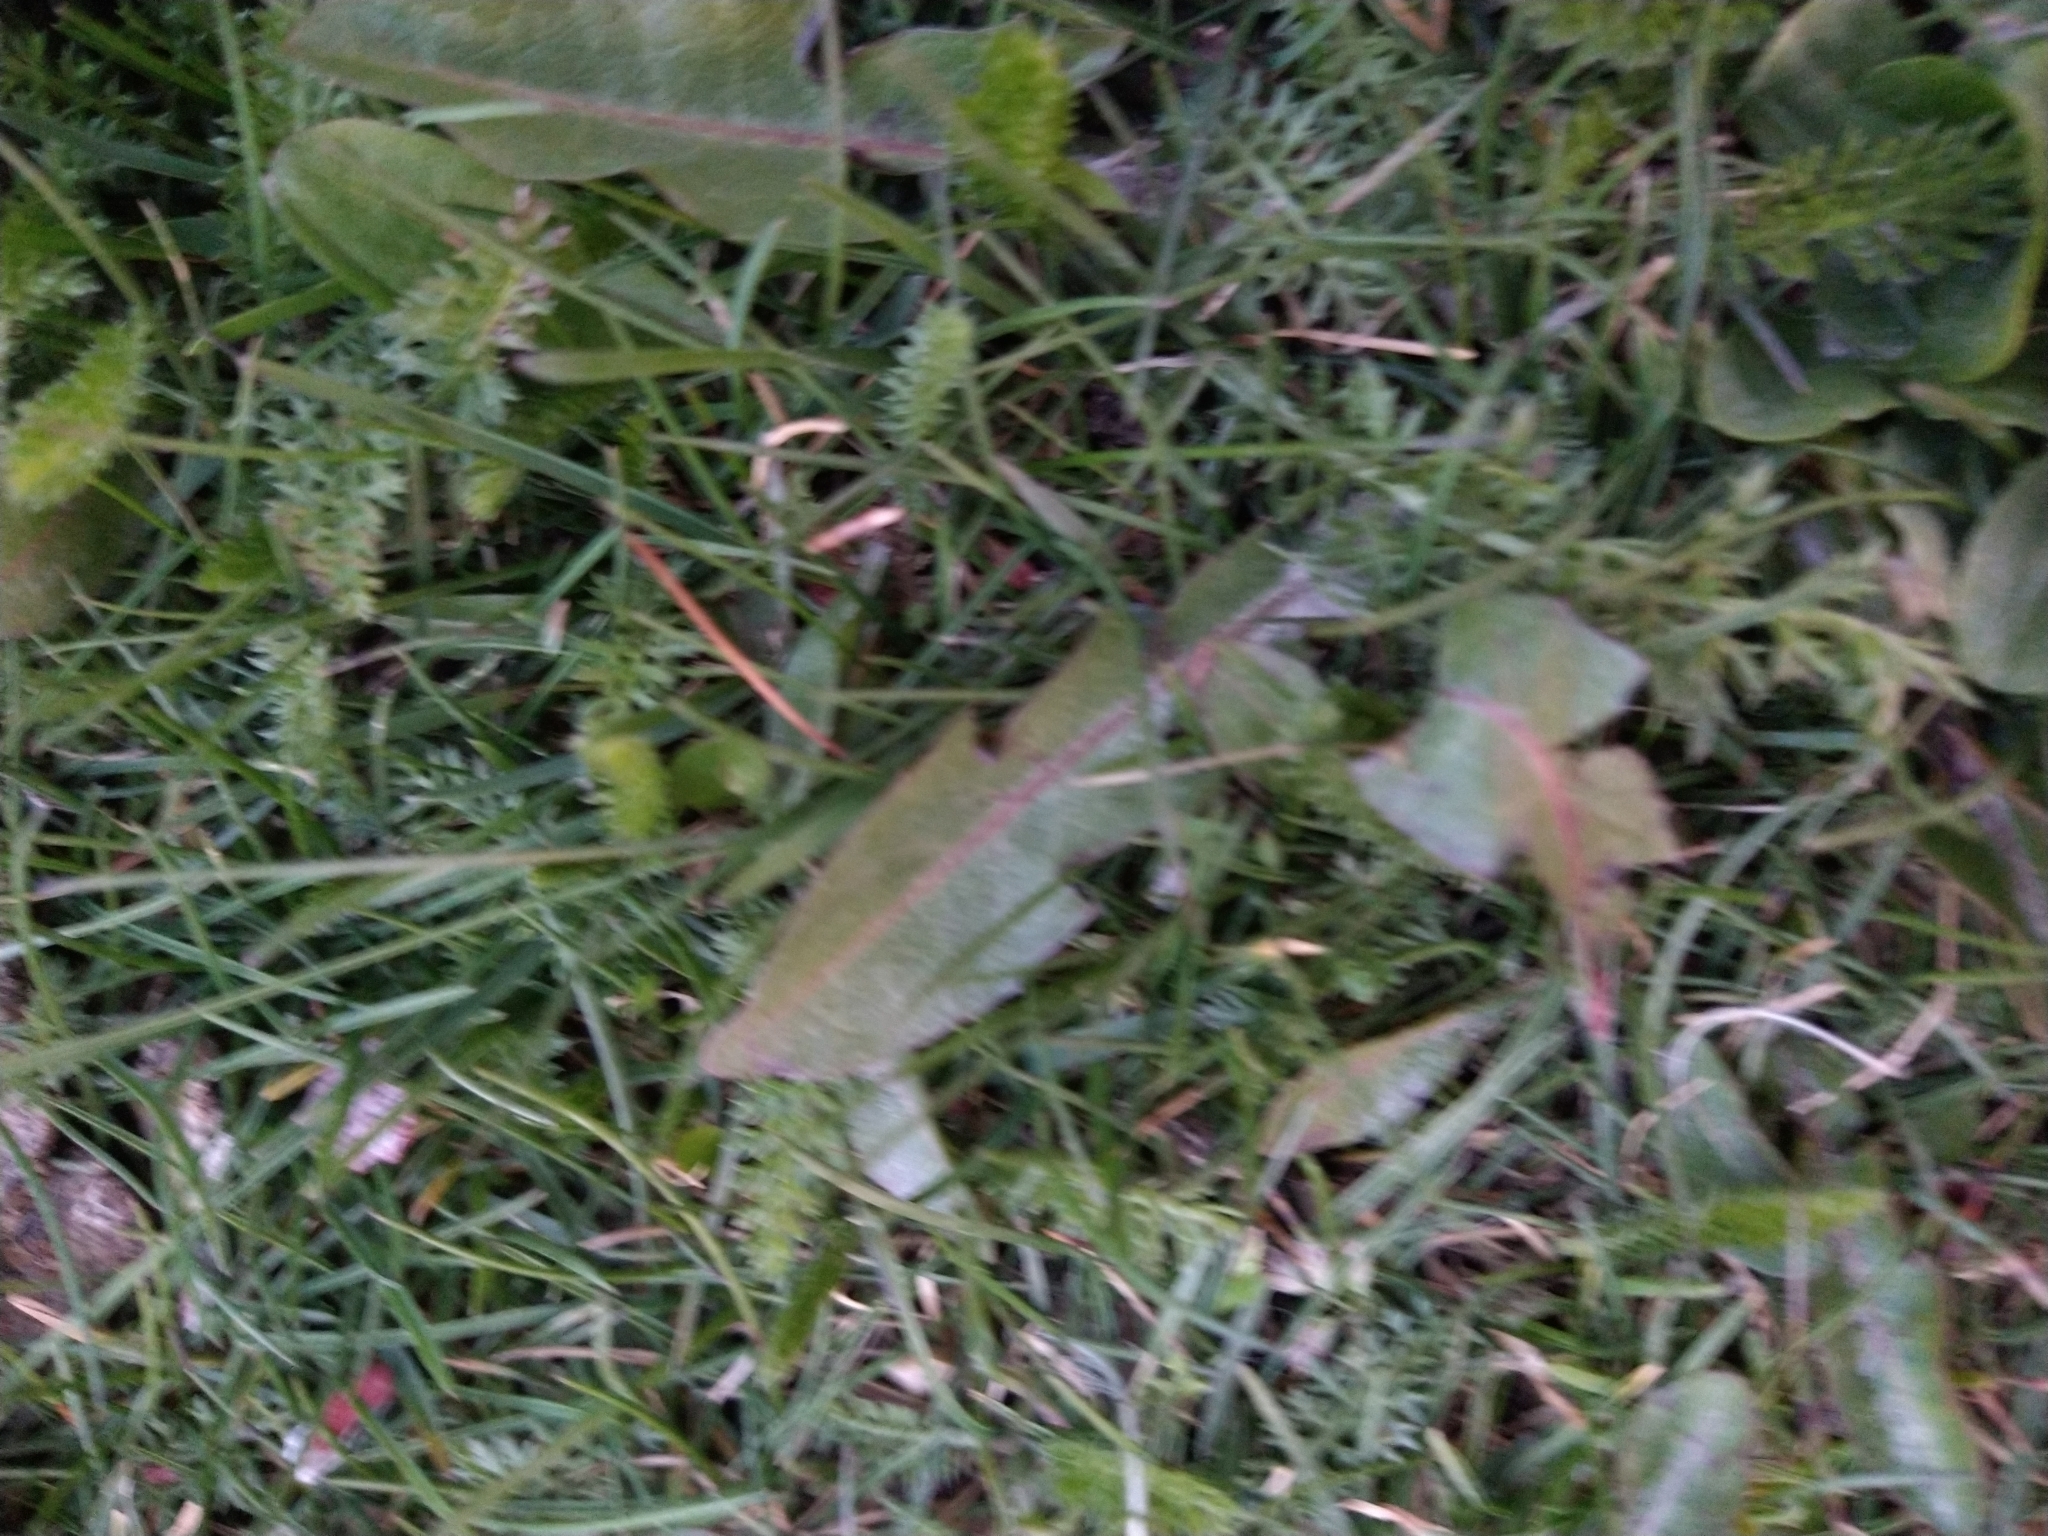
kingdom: Plantae
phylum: Tracheophyta
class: Magnoliopsida
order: Asterales
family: Asteraceae
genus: Taraxacum
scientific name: Taraxacum officinale
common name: Common dandelion
